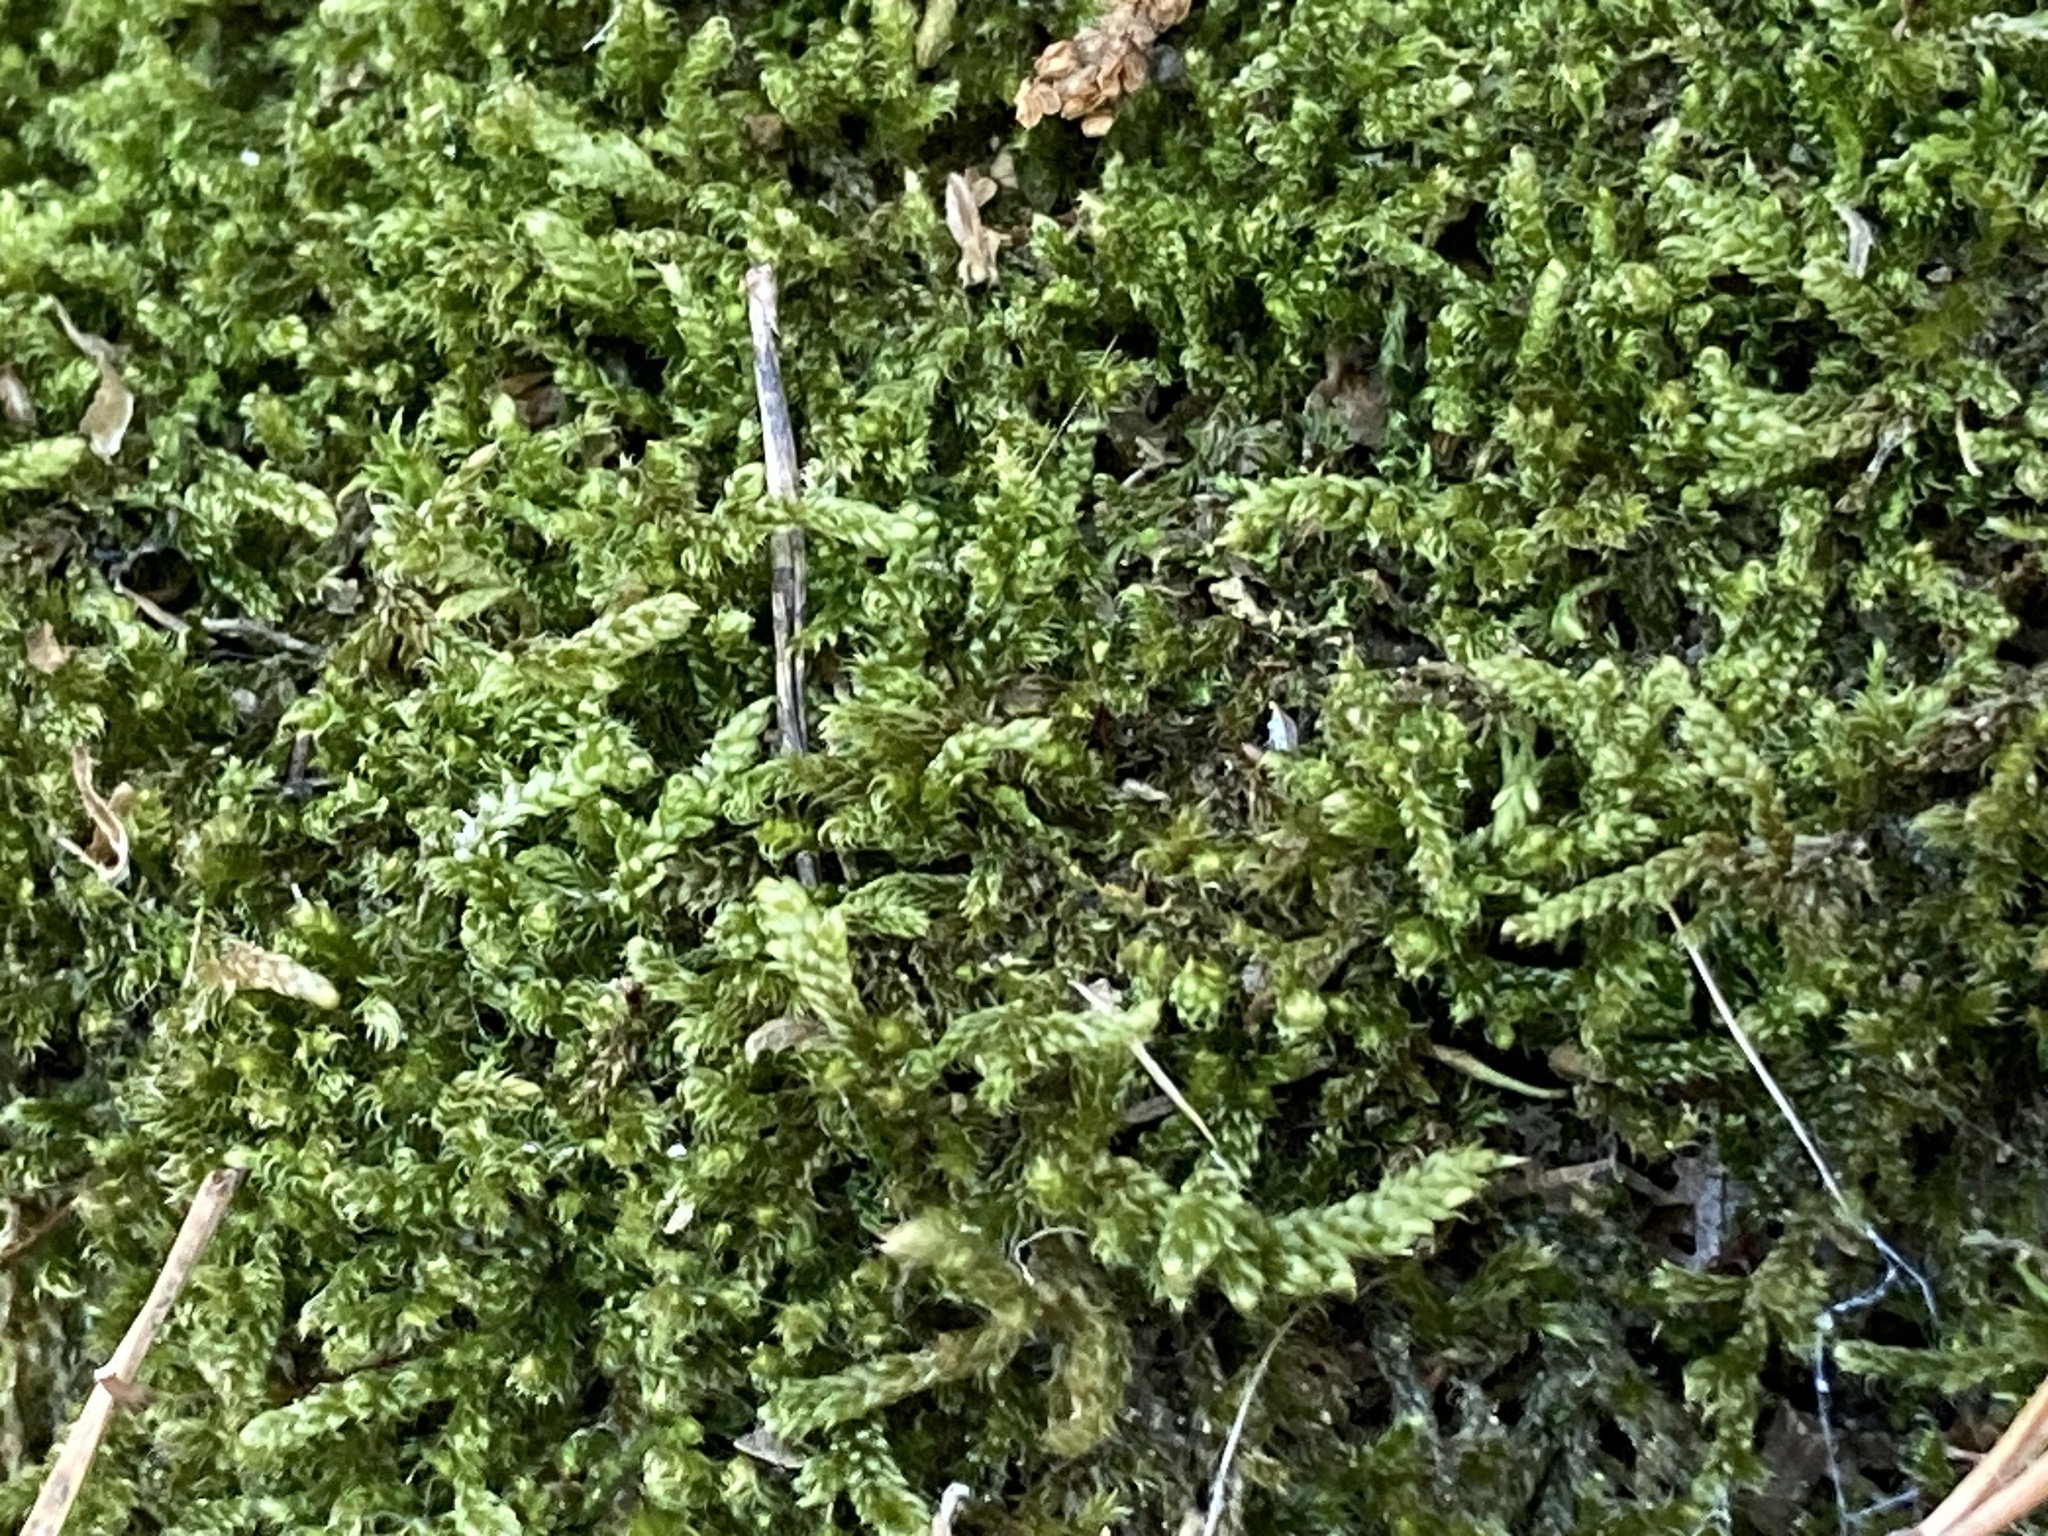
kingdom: Plantae
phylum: Bryophyta
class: Bryopsida
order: Hypnales
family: Hypnaceae
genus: Hypnum
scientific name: Hypnum cupressiforme
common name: Cypress-leaved plait-moss
